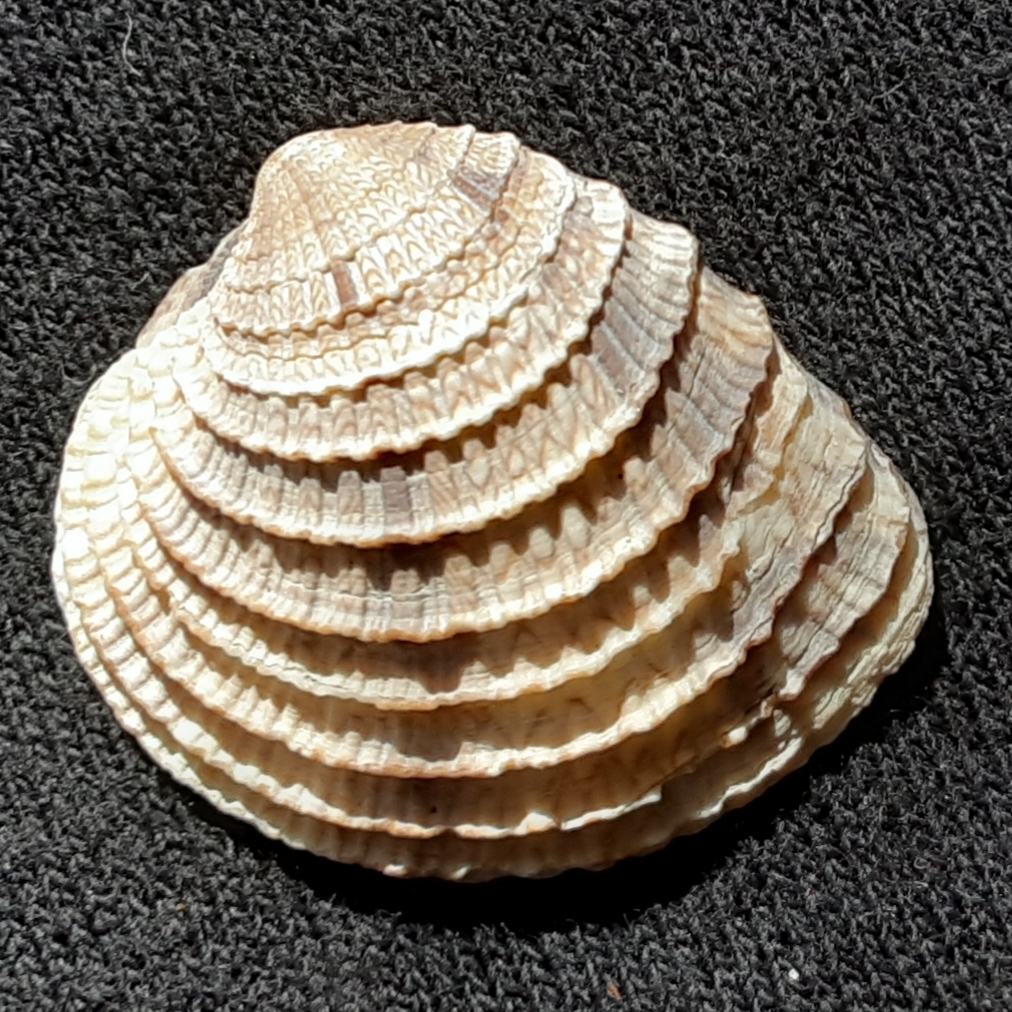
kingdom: Animalia
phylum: Mollusca
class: Bivalvia
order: Venerida
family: Veneridae
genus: Chione
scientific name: Chione elevata
